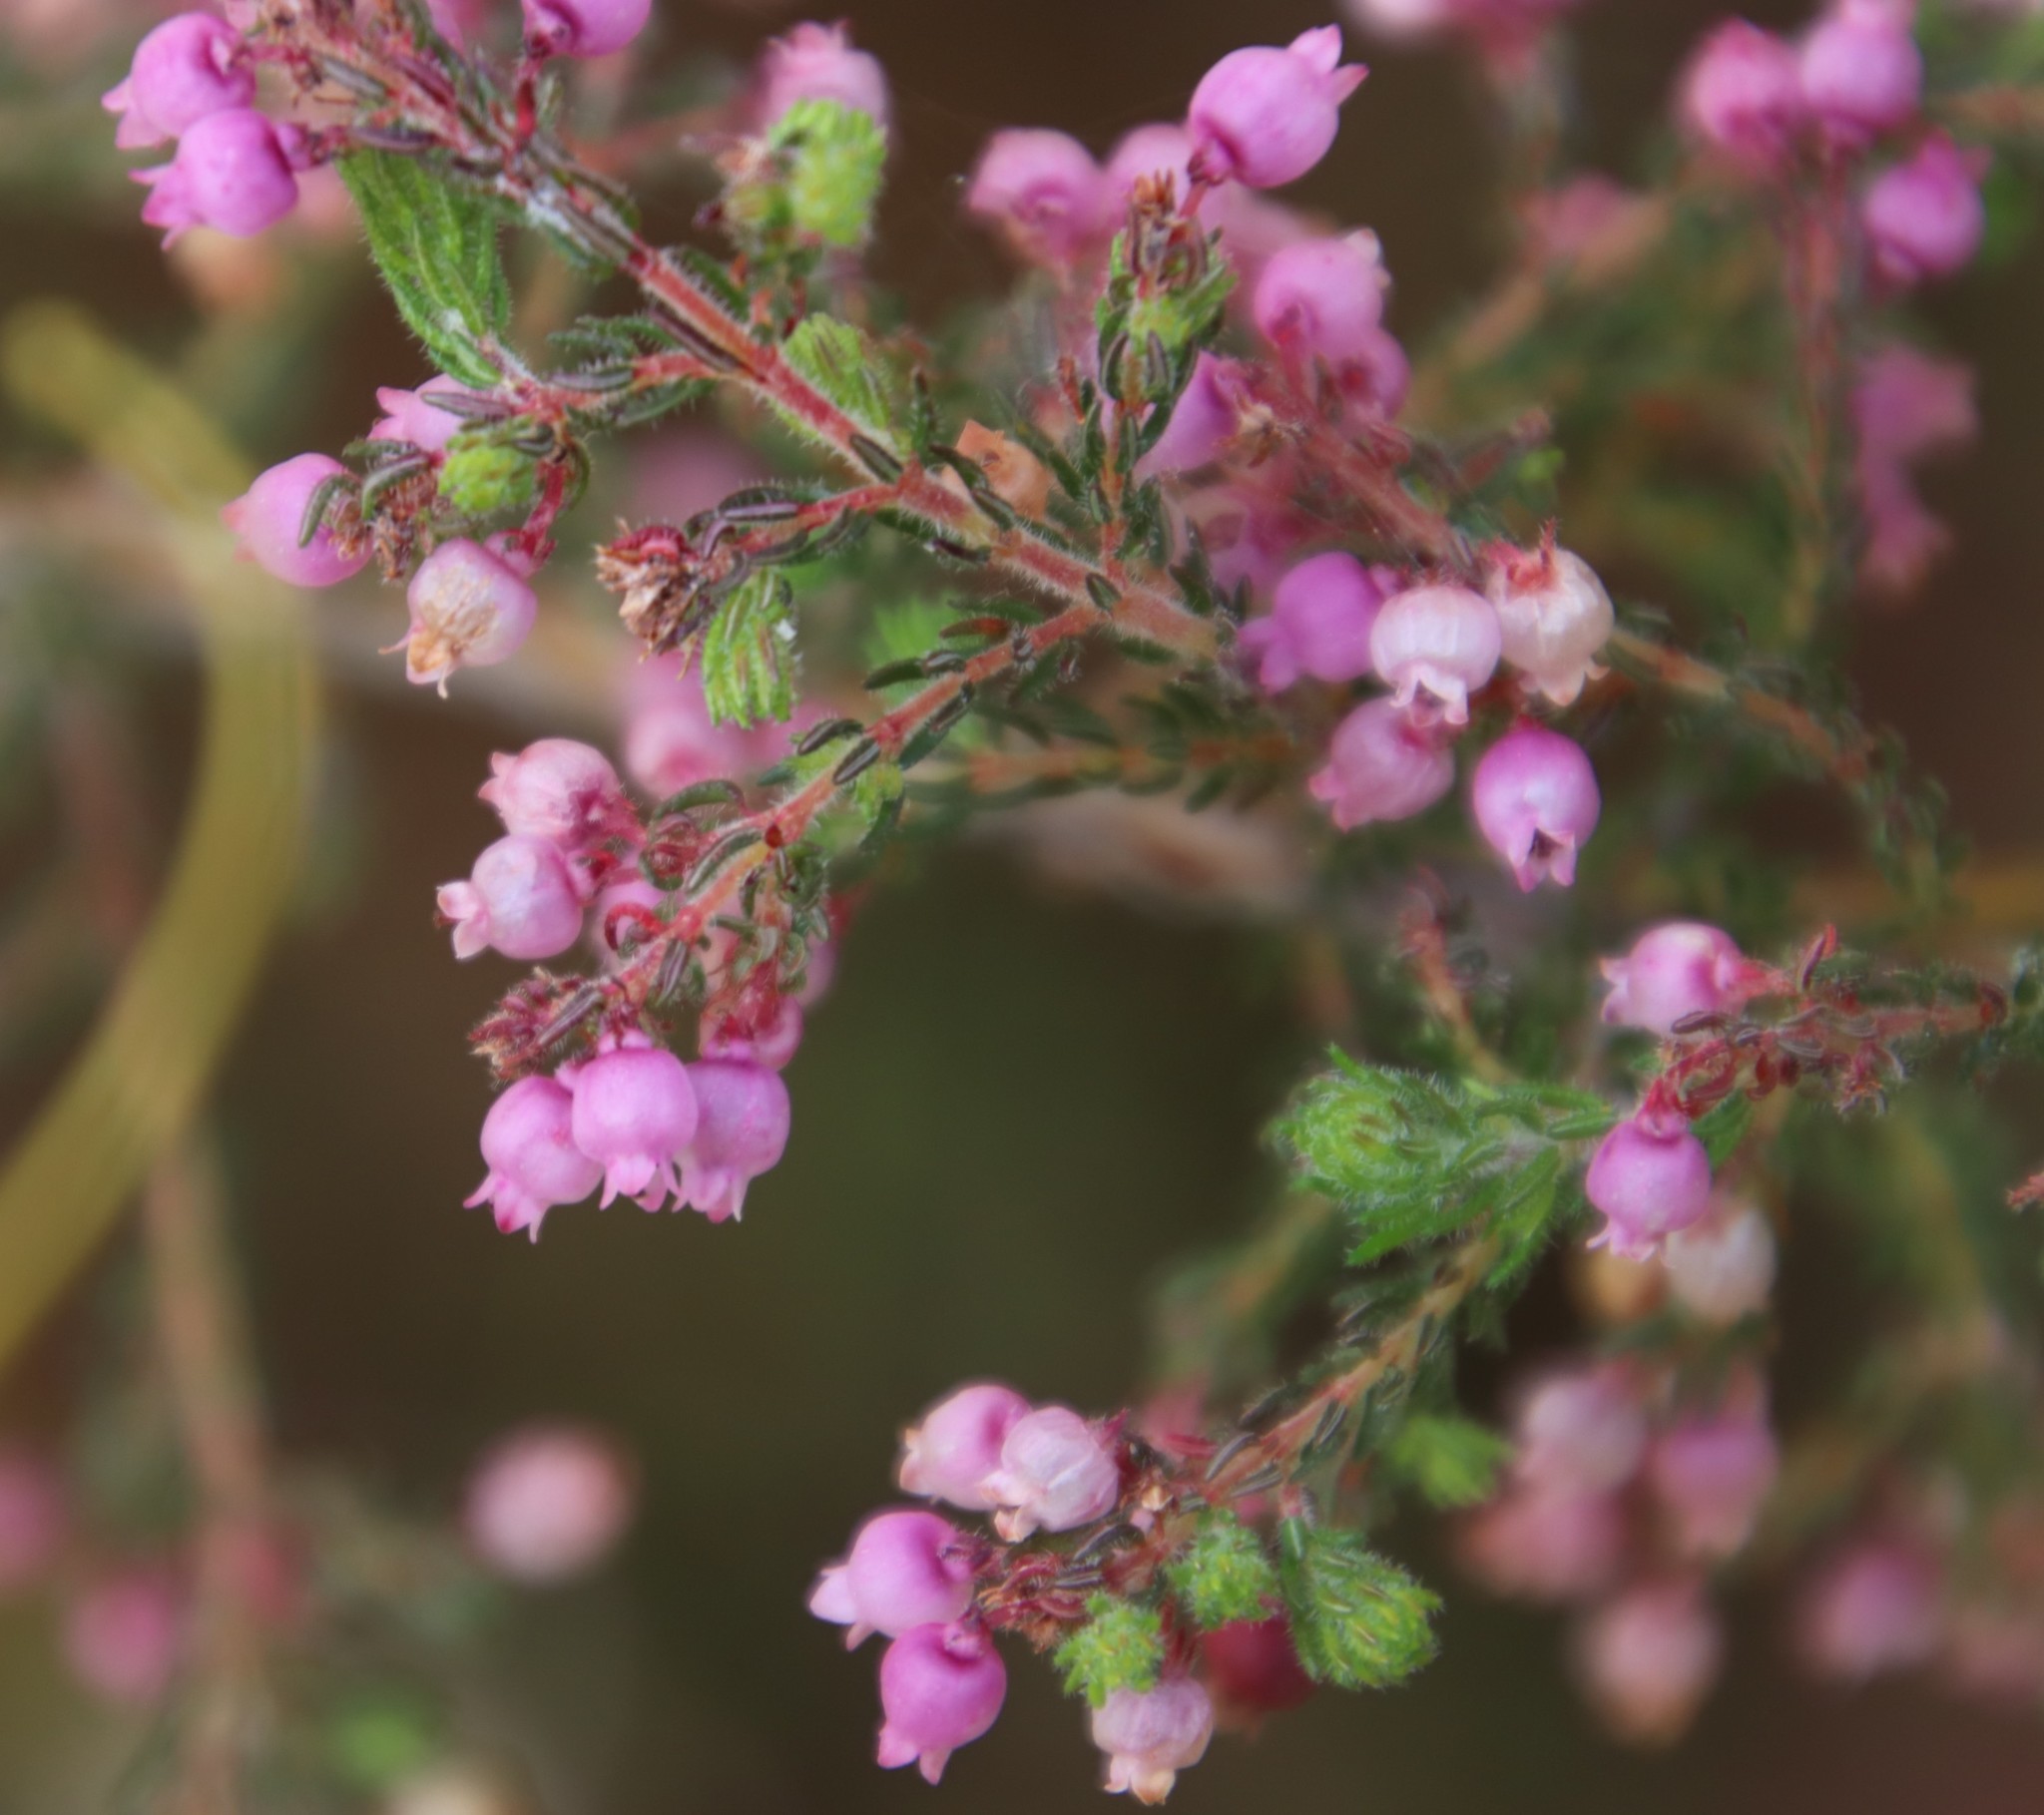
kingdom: Plantae
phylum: Tracheophyta
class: Magnoliopsida
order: Ericales
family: Ericaceae
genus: Erica
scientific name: Erica bergiana
